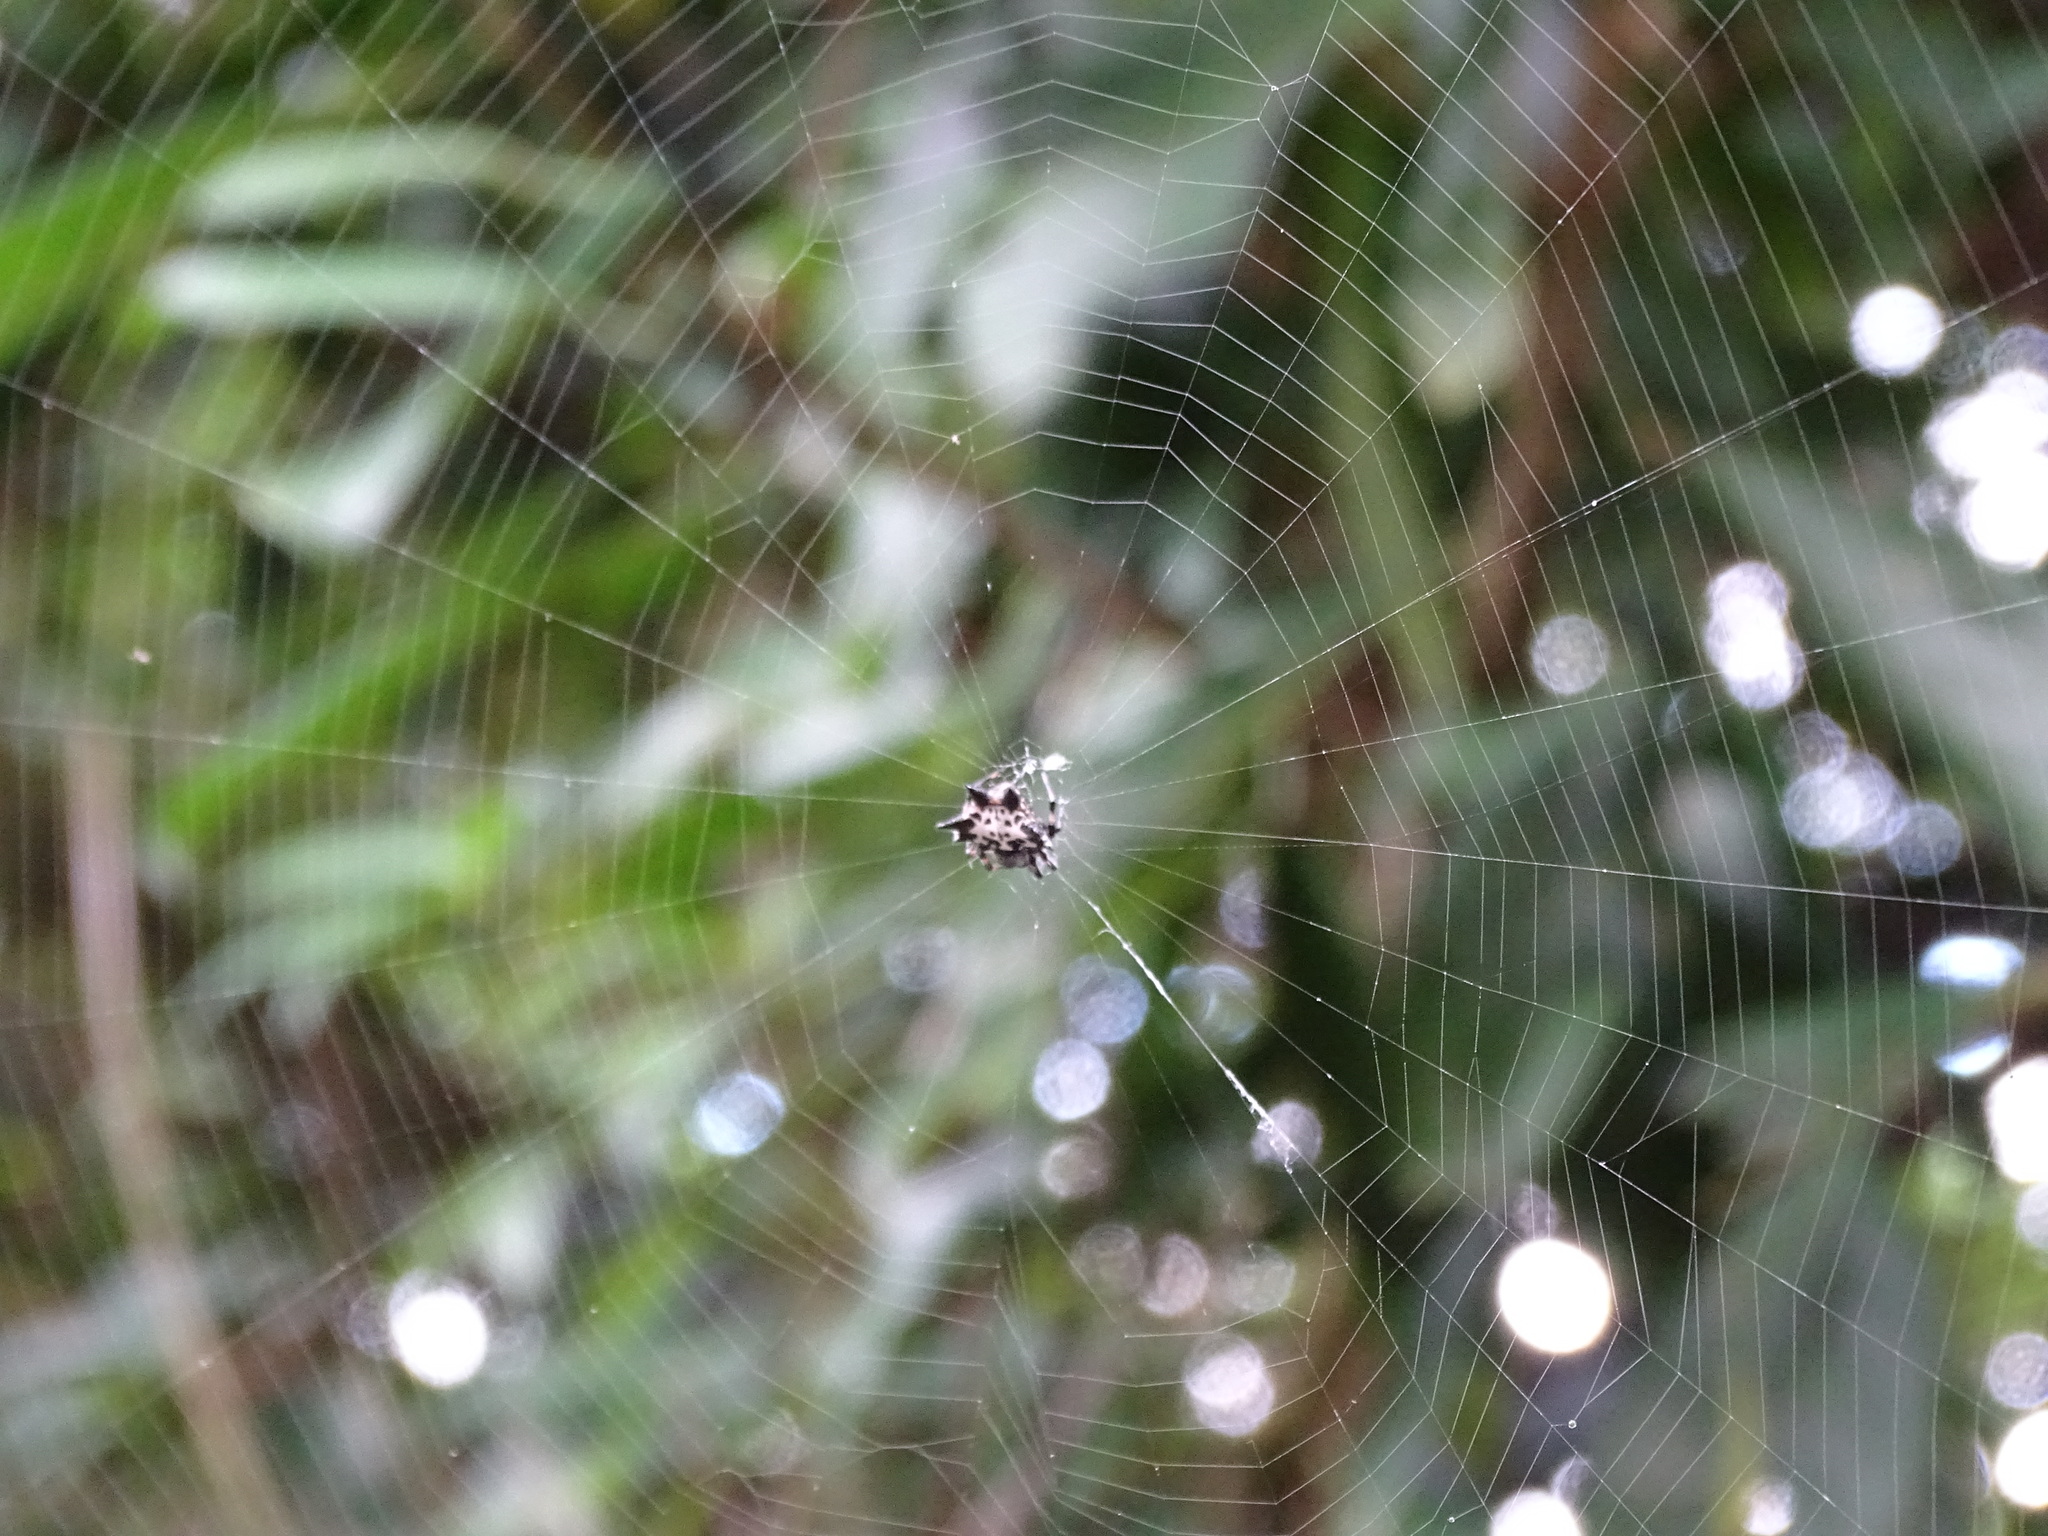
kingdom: Animalia
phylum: Arthropoda
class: Arachnida
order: Araneae
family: Araneidae
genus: Gasteracantha
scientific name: Gasteracantha kuhli
